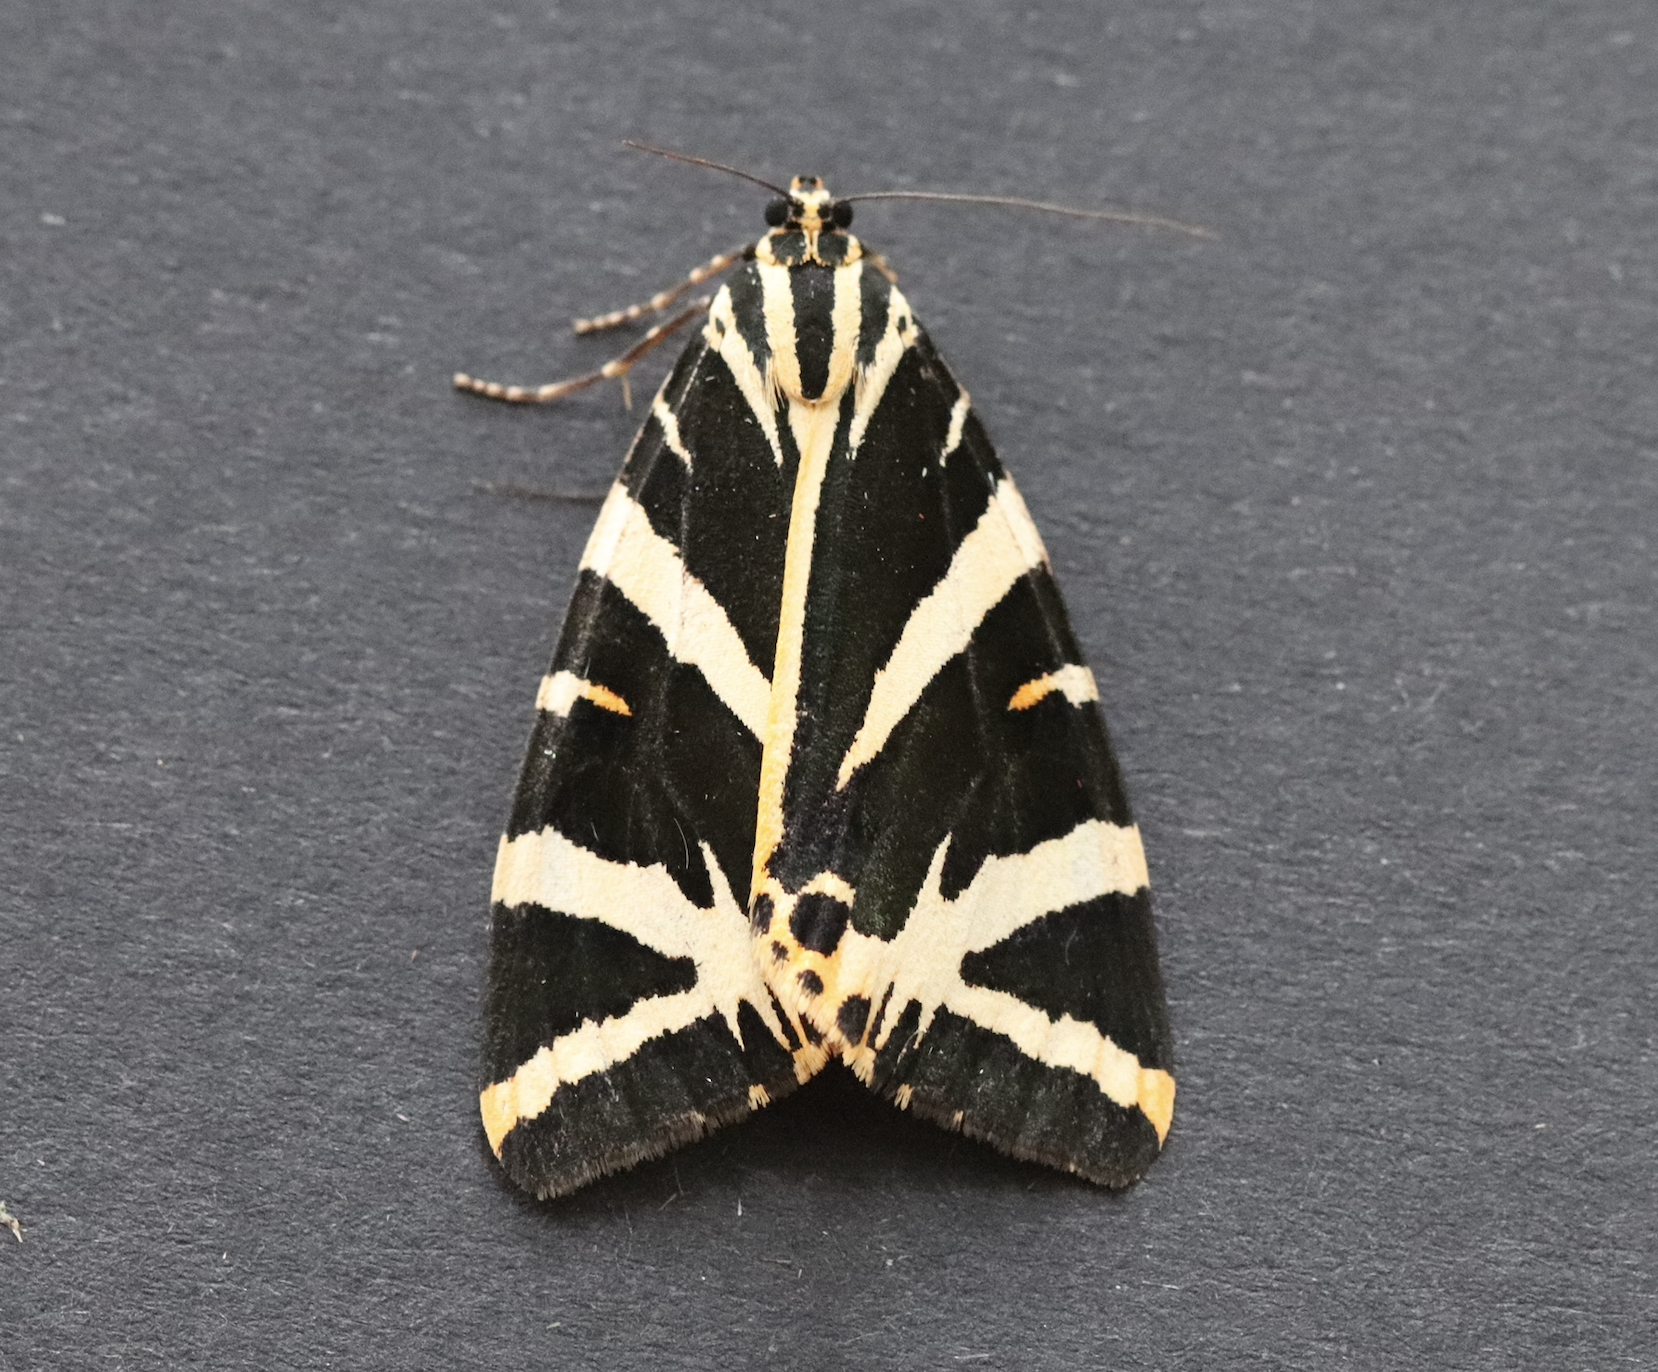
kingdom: Animalia
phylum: Arthropoda
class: Insecta
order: Lepidoptera
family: Erebidae
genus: Euplagia
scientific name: Euplagia quadripunctaria
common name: Jersey tiger
